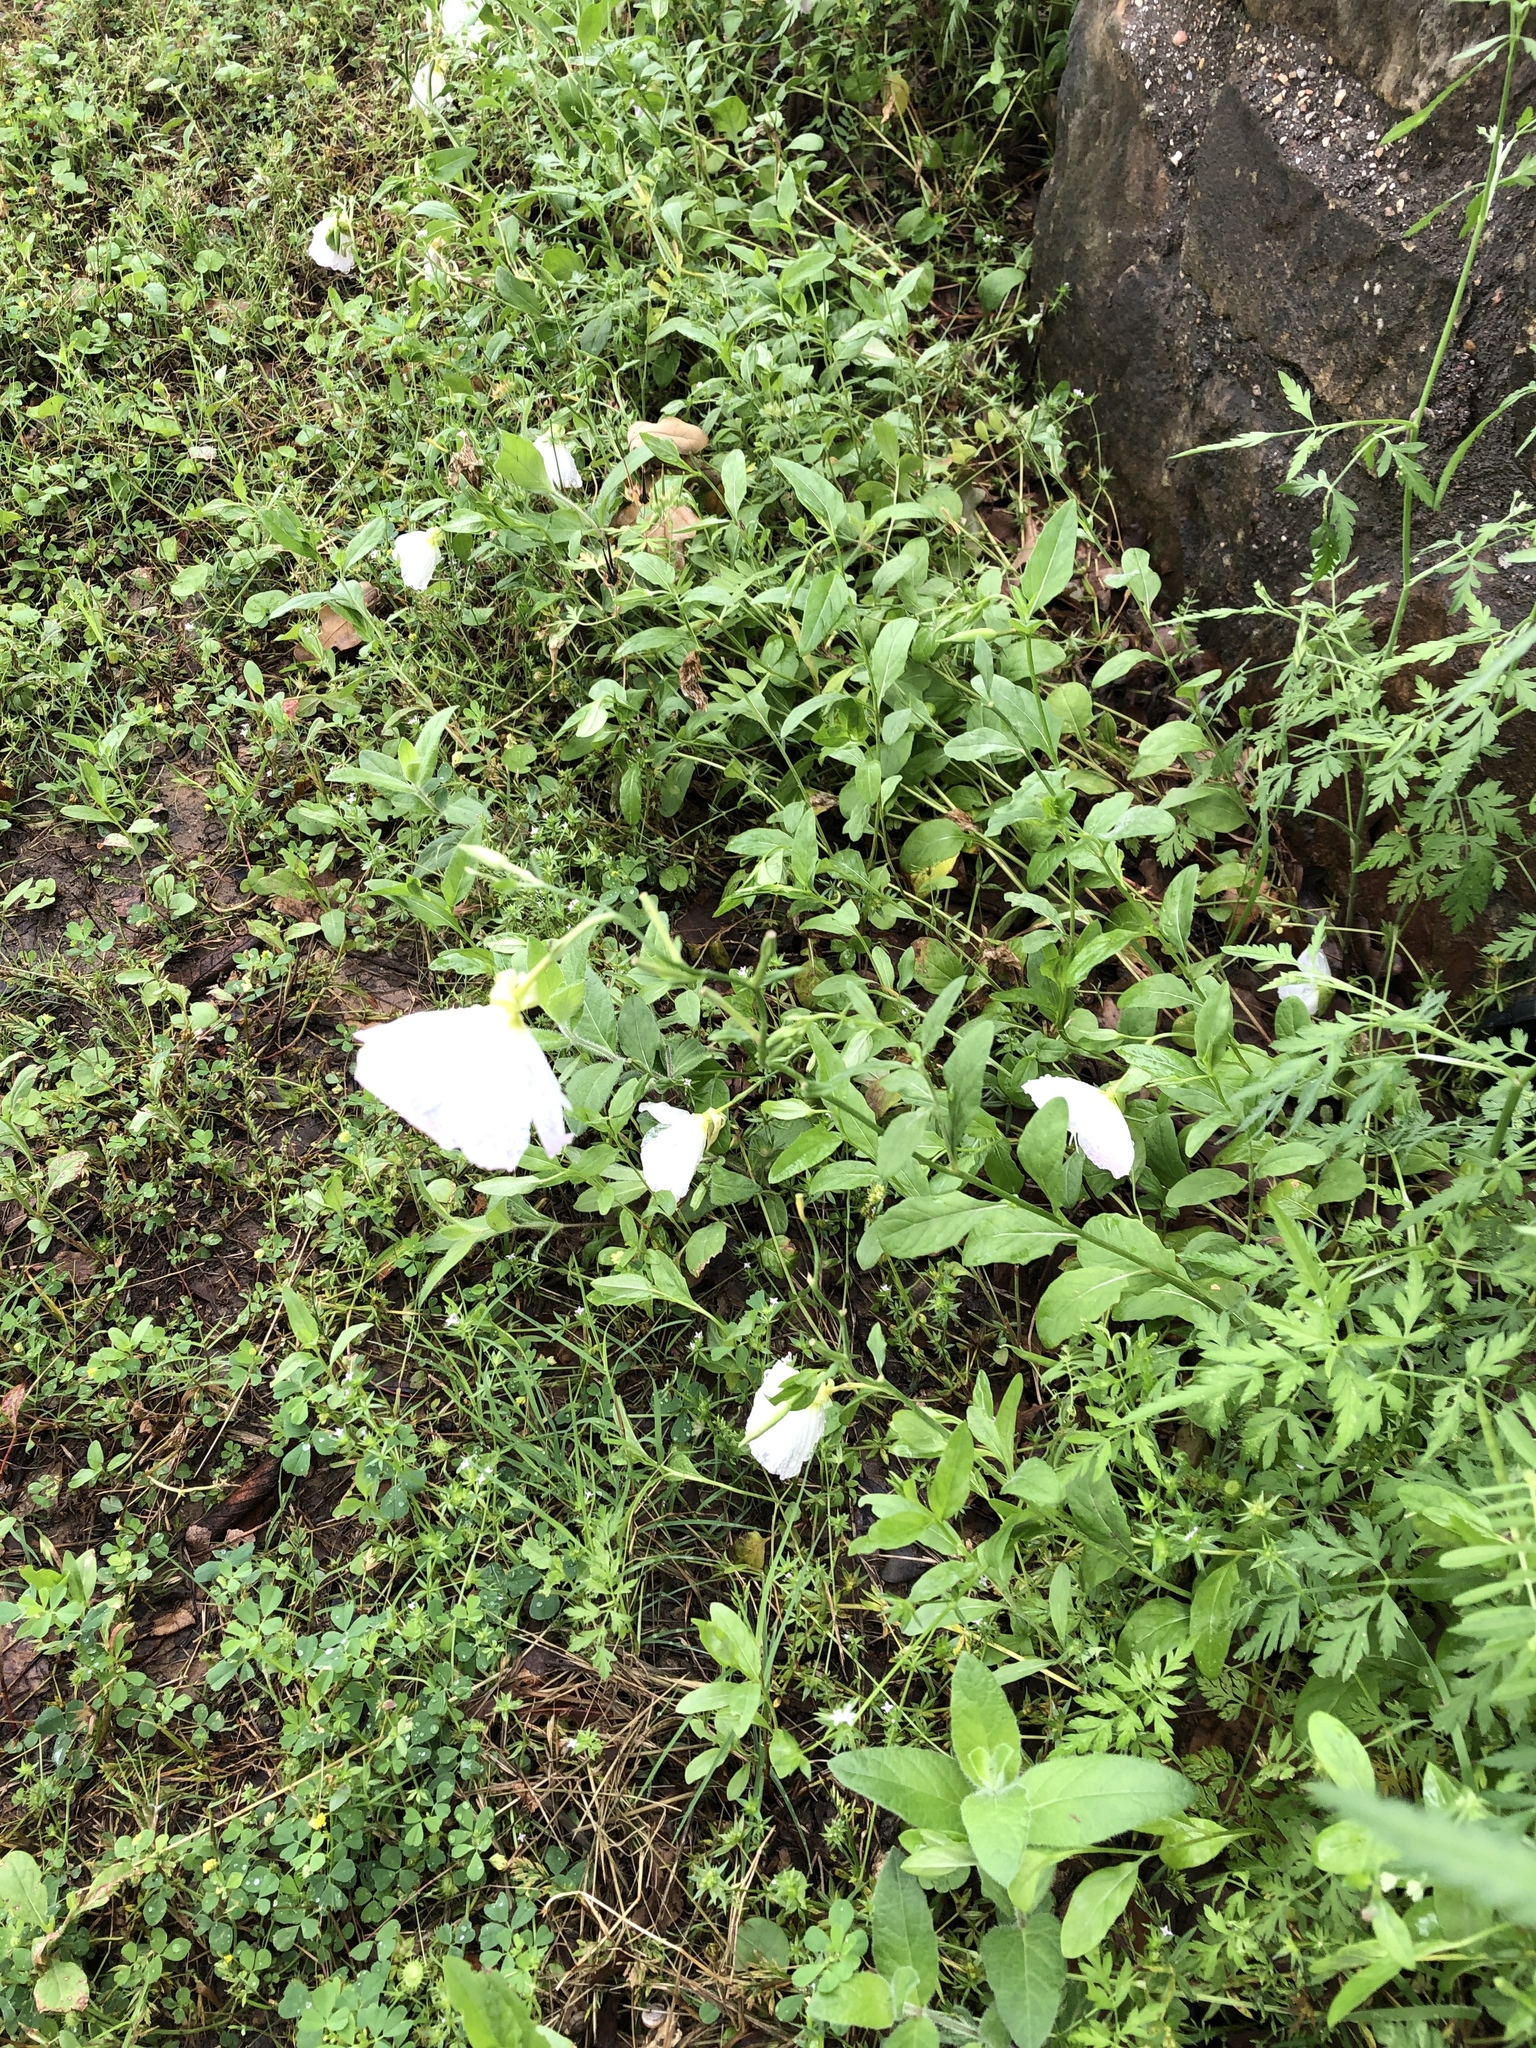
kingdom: Plantae
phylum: Tracheophyta
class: Magnoliopsida
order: Myrtales
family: Onagraceae
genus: Oenothera
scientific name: Oenothera speciosa
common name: White evening-primrose
